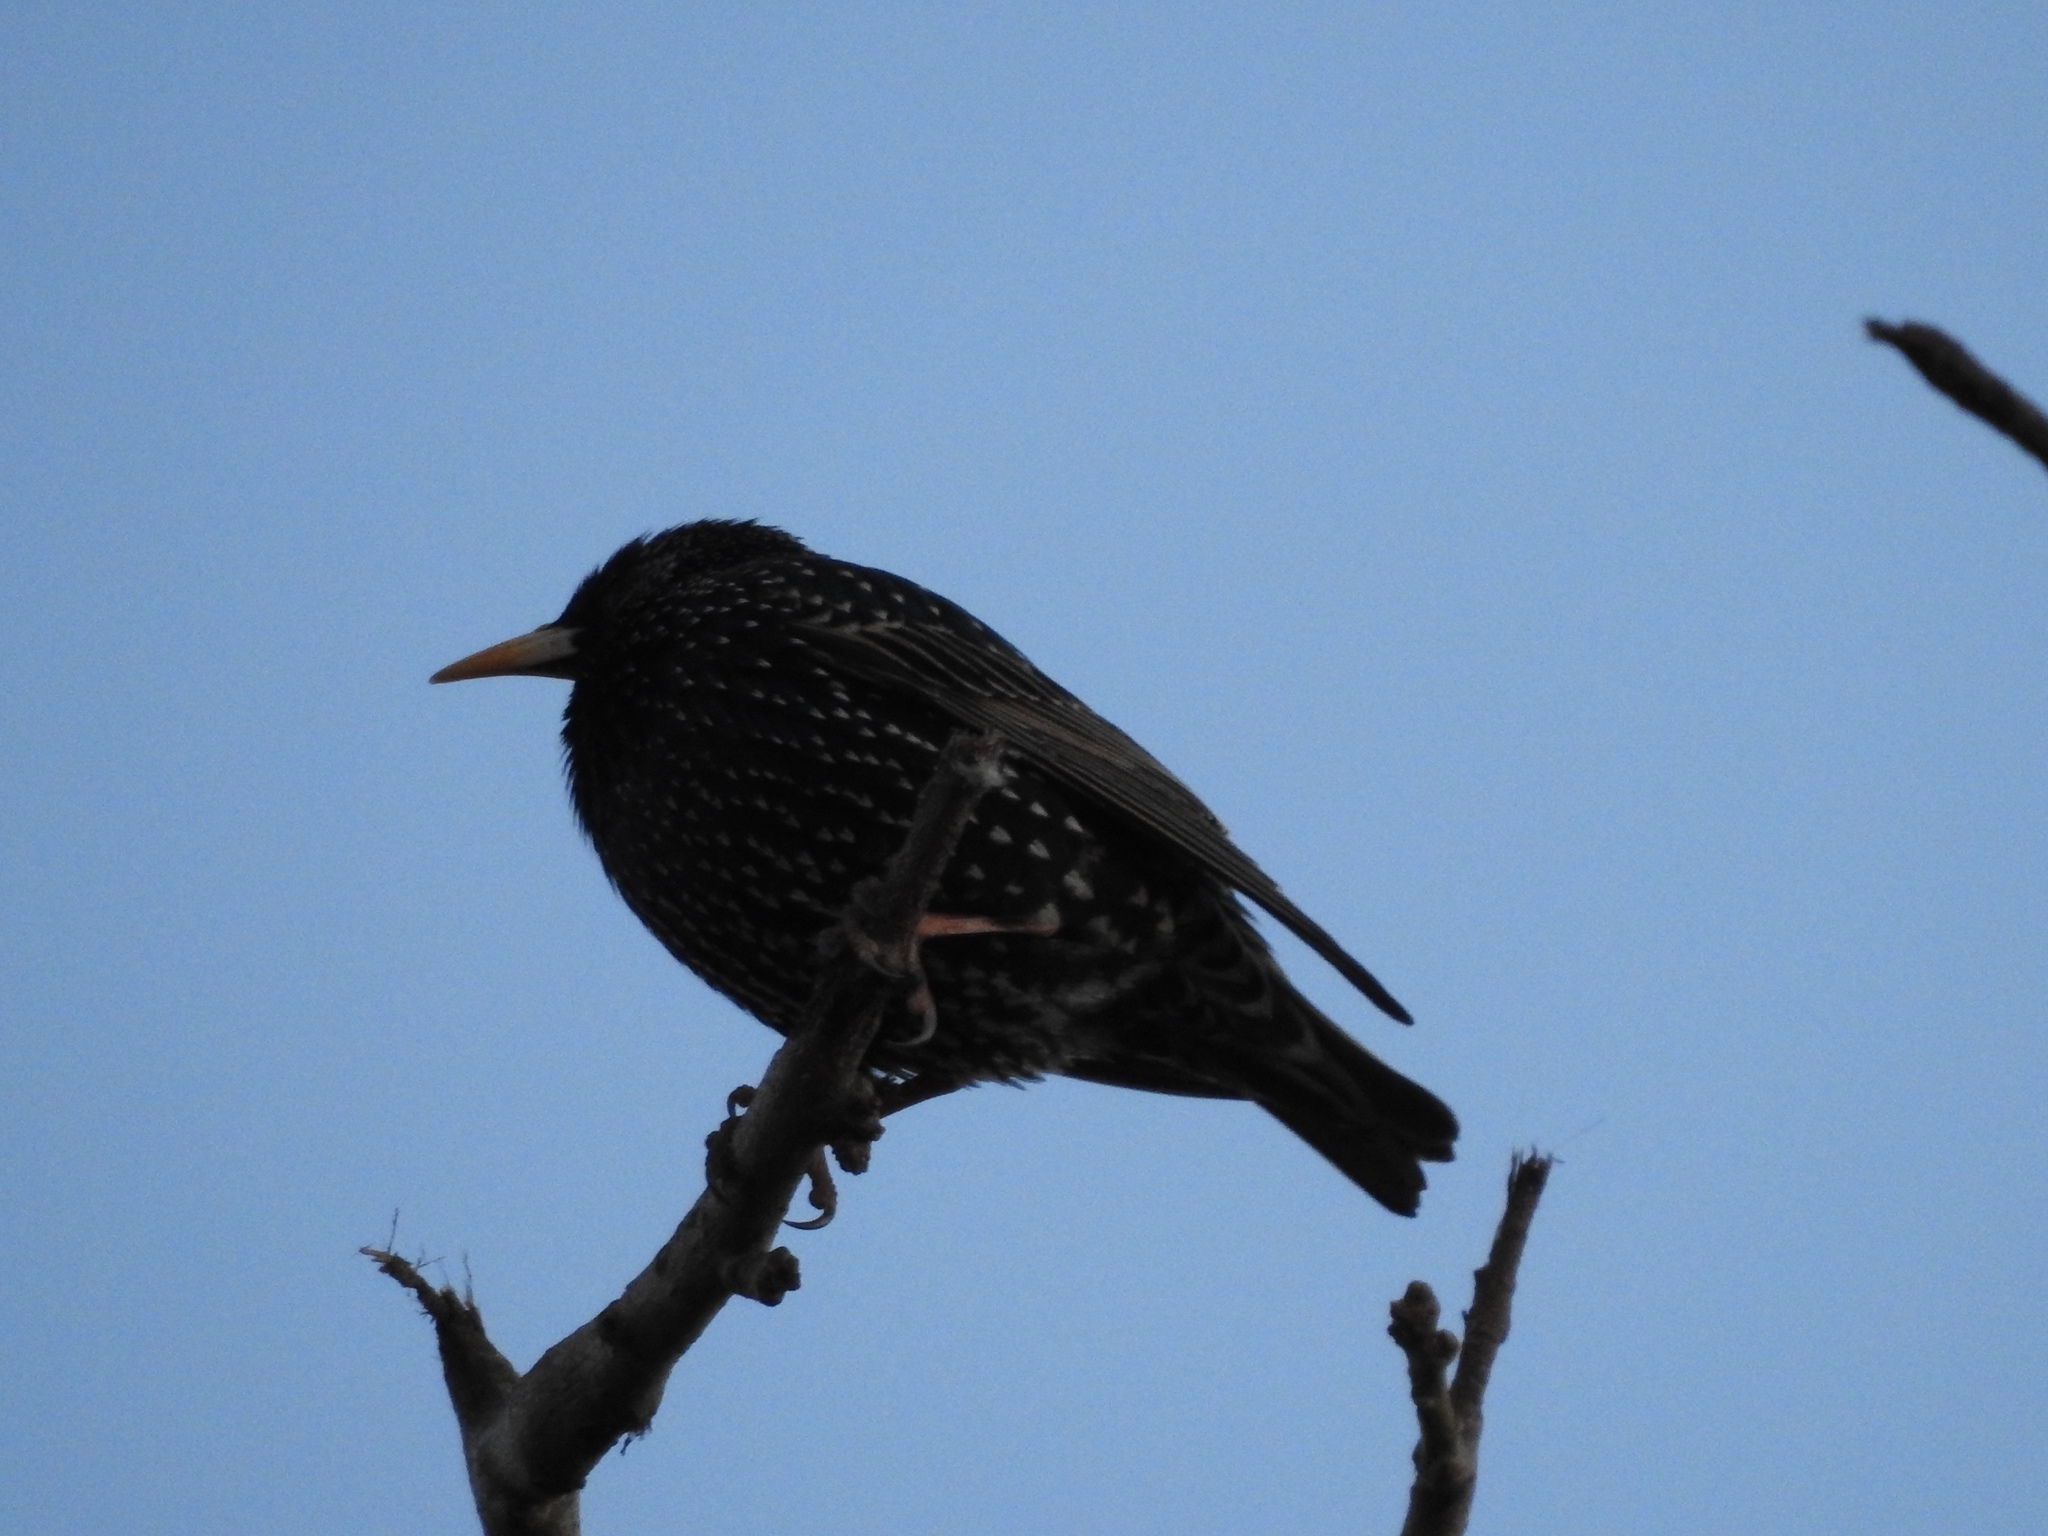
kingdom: Animalia
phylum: Chordata
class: Aves
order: Passeriformes
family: Sturnidae
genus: Sturnus
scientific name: Sturnus vulgaris
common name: Common starling
